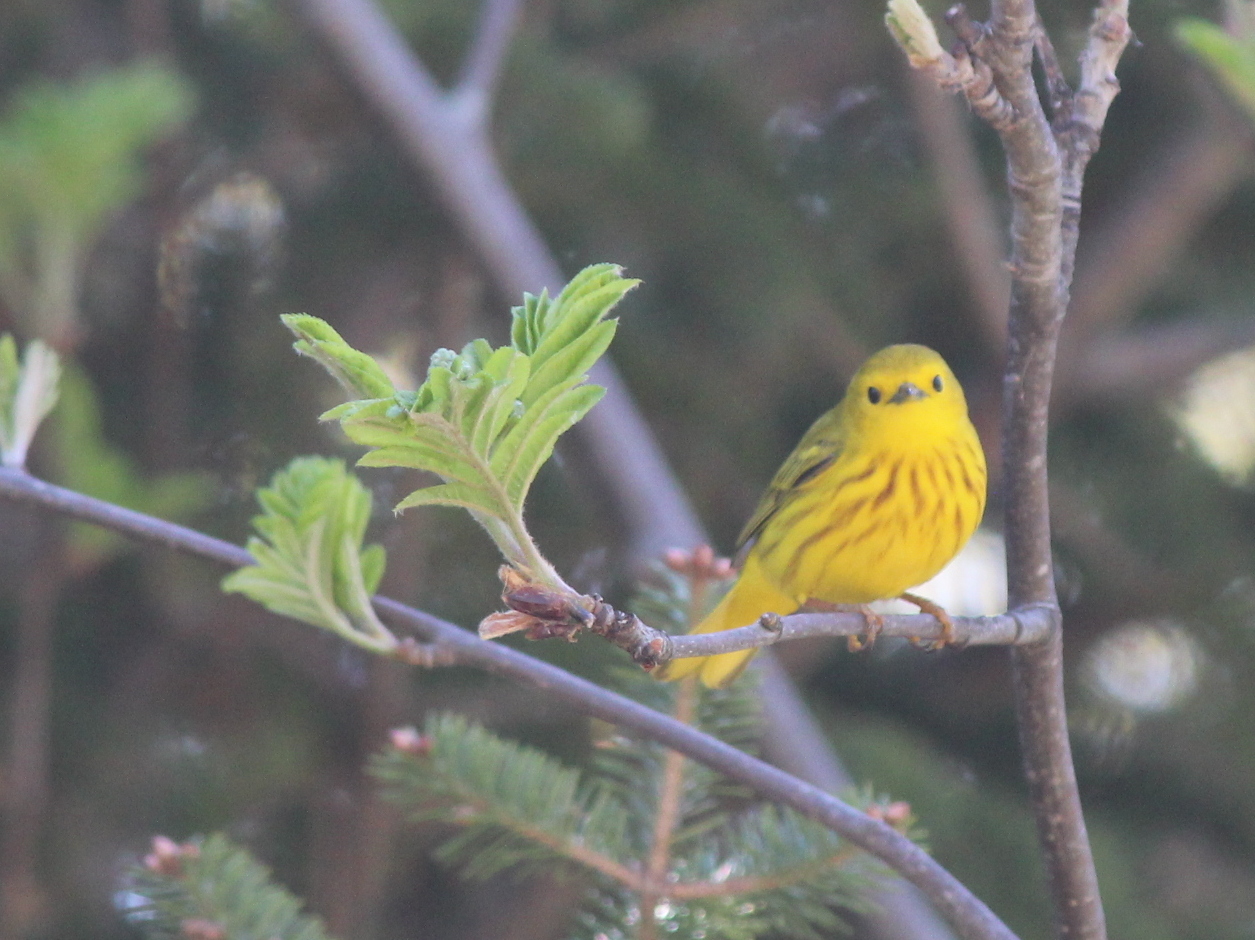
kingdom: Animalia
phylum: Chordata
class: Aves
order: Passeriformes
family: Parulidae
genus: Setophaga
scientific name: Setophaga petechia
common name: Yellow warbler
